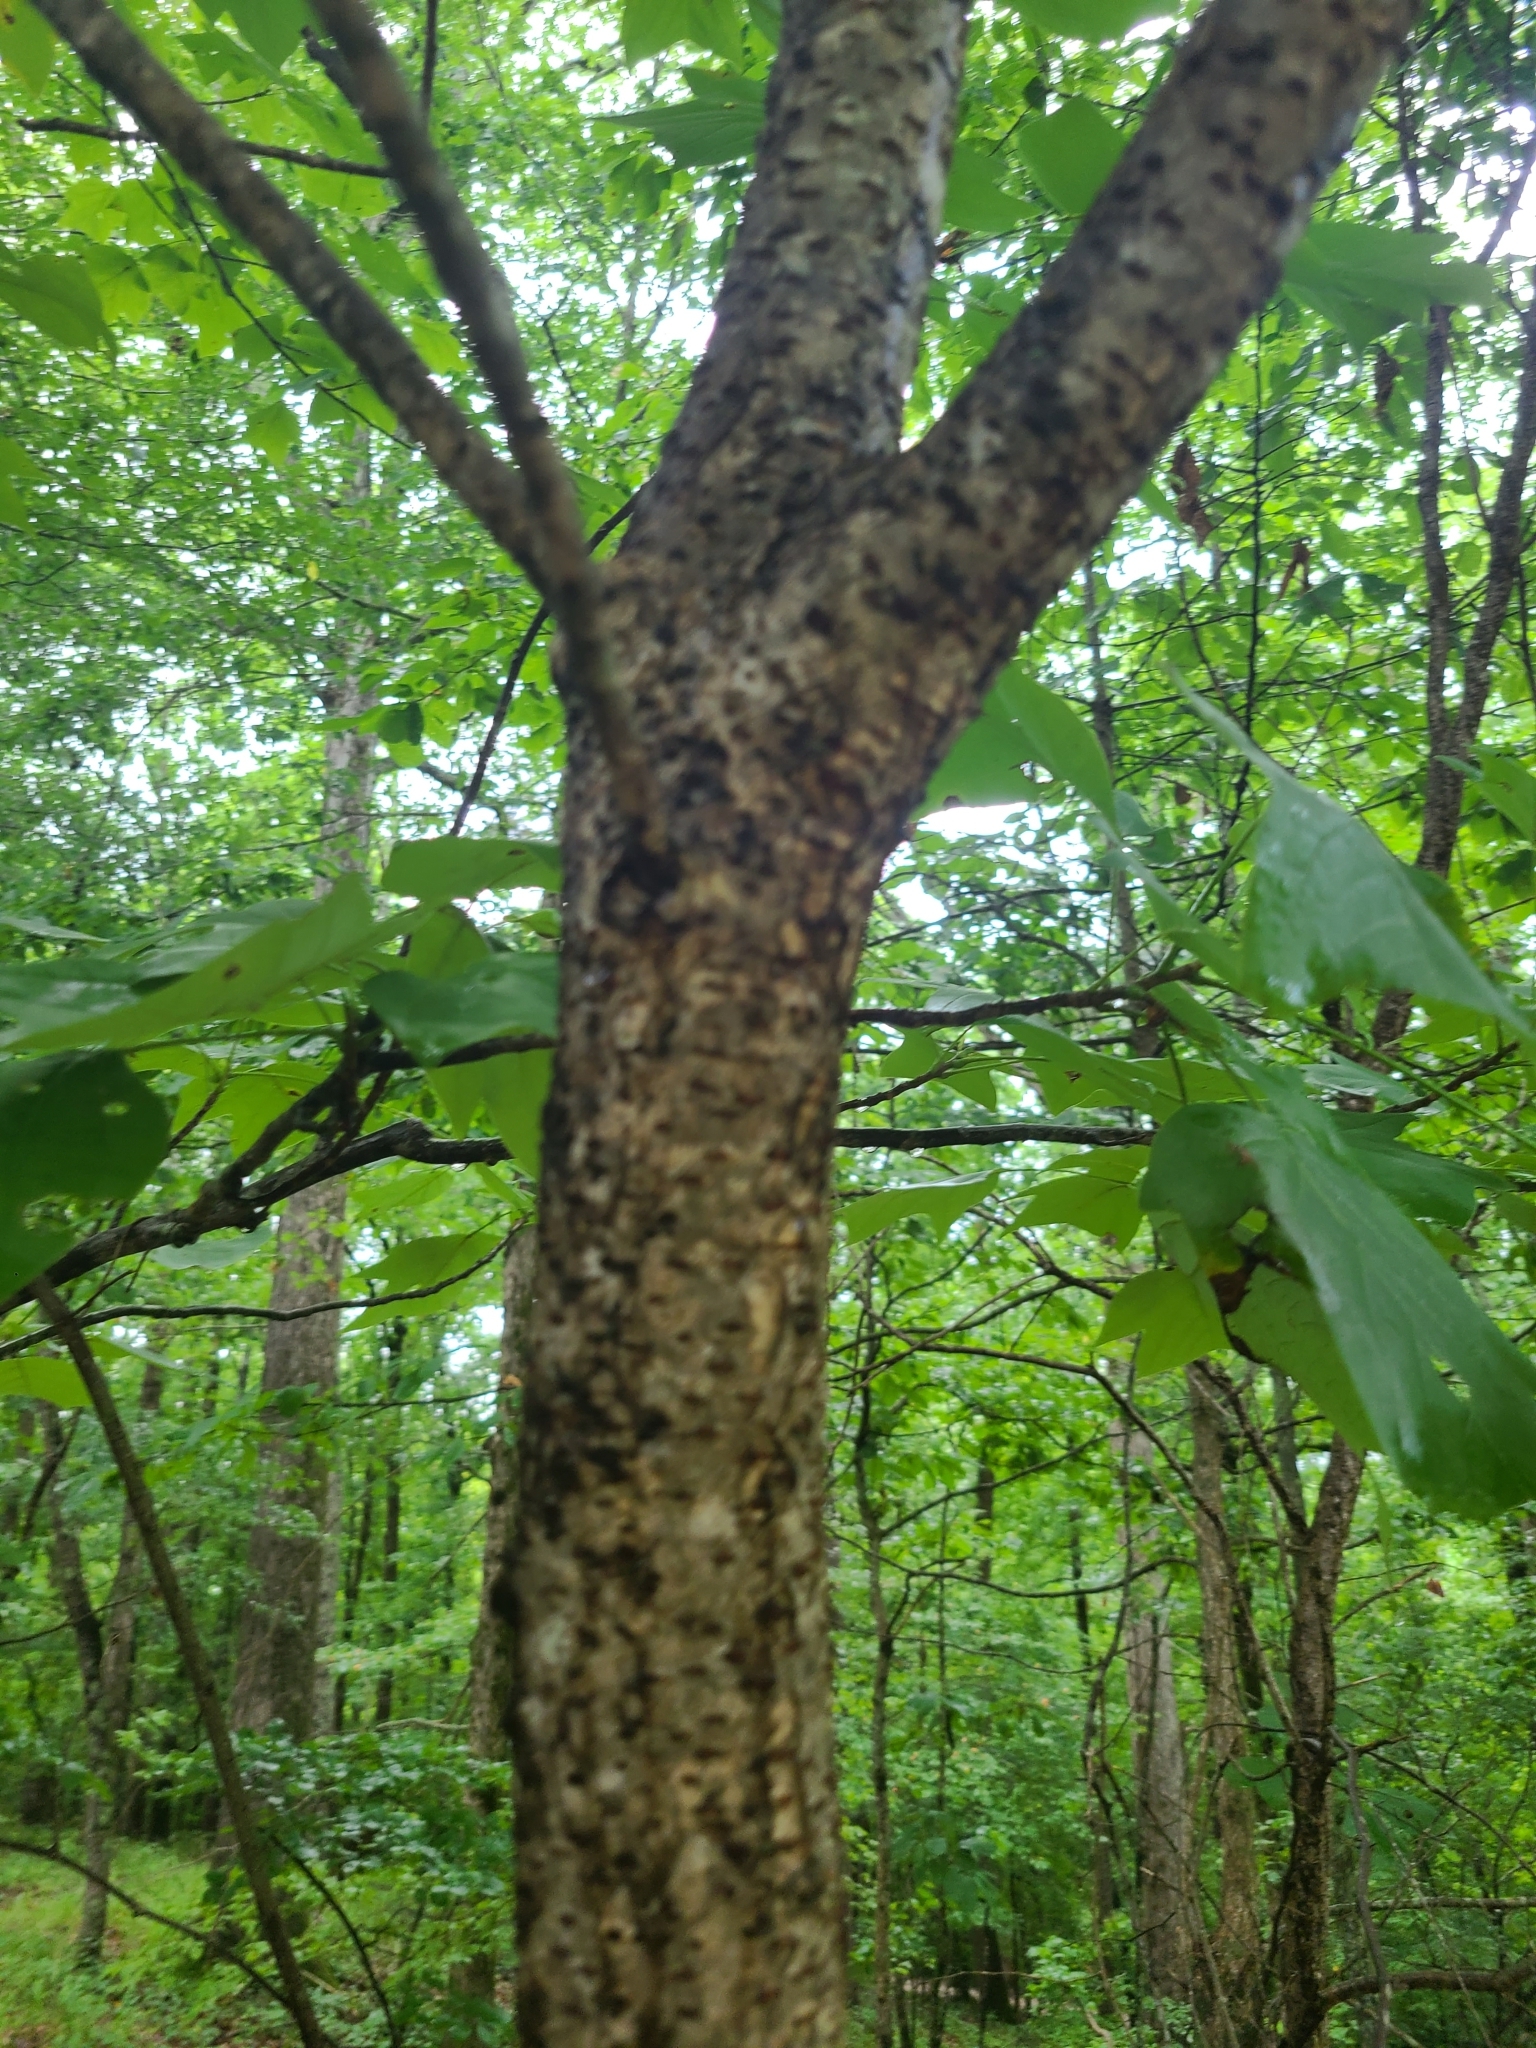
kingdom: Plantae
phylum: Tracheophyta
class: Magnoliopsida
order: Sapindales
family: Anacardiaceae
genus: Rhus
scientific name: Rhus copallina
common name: Shining sumac
